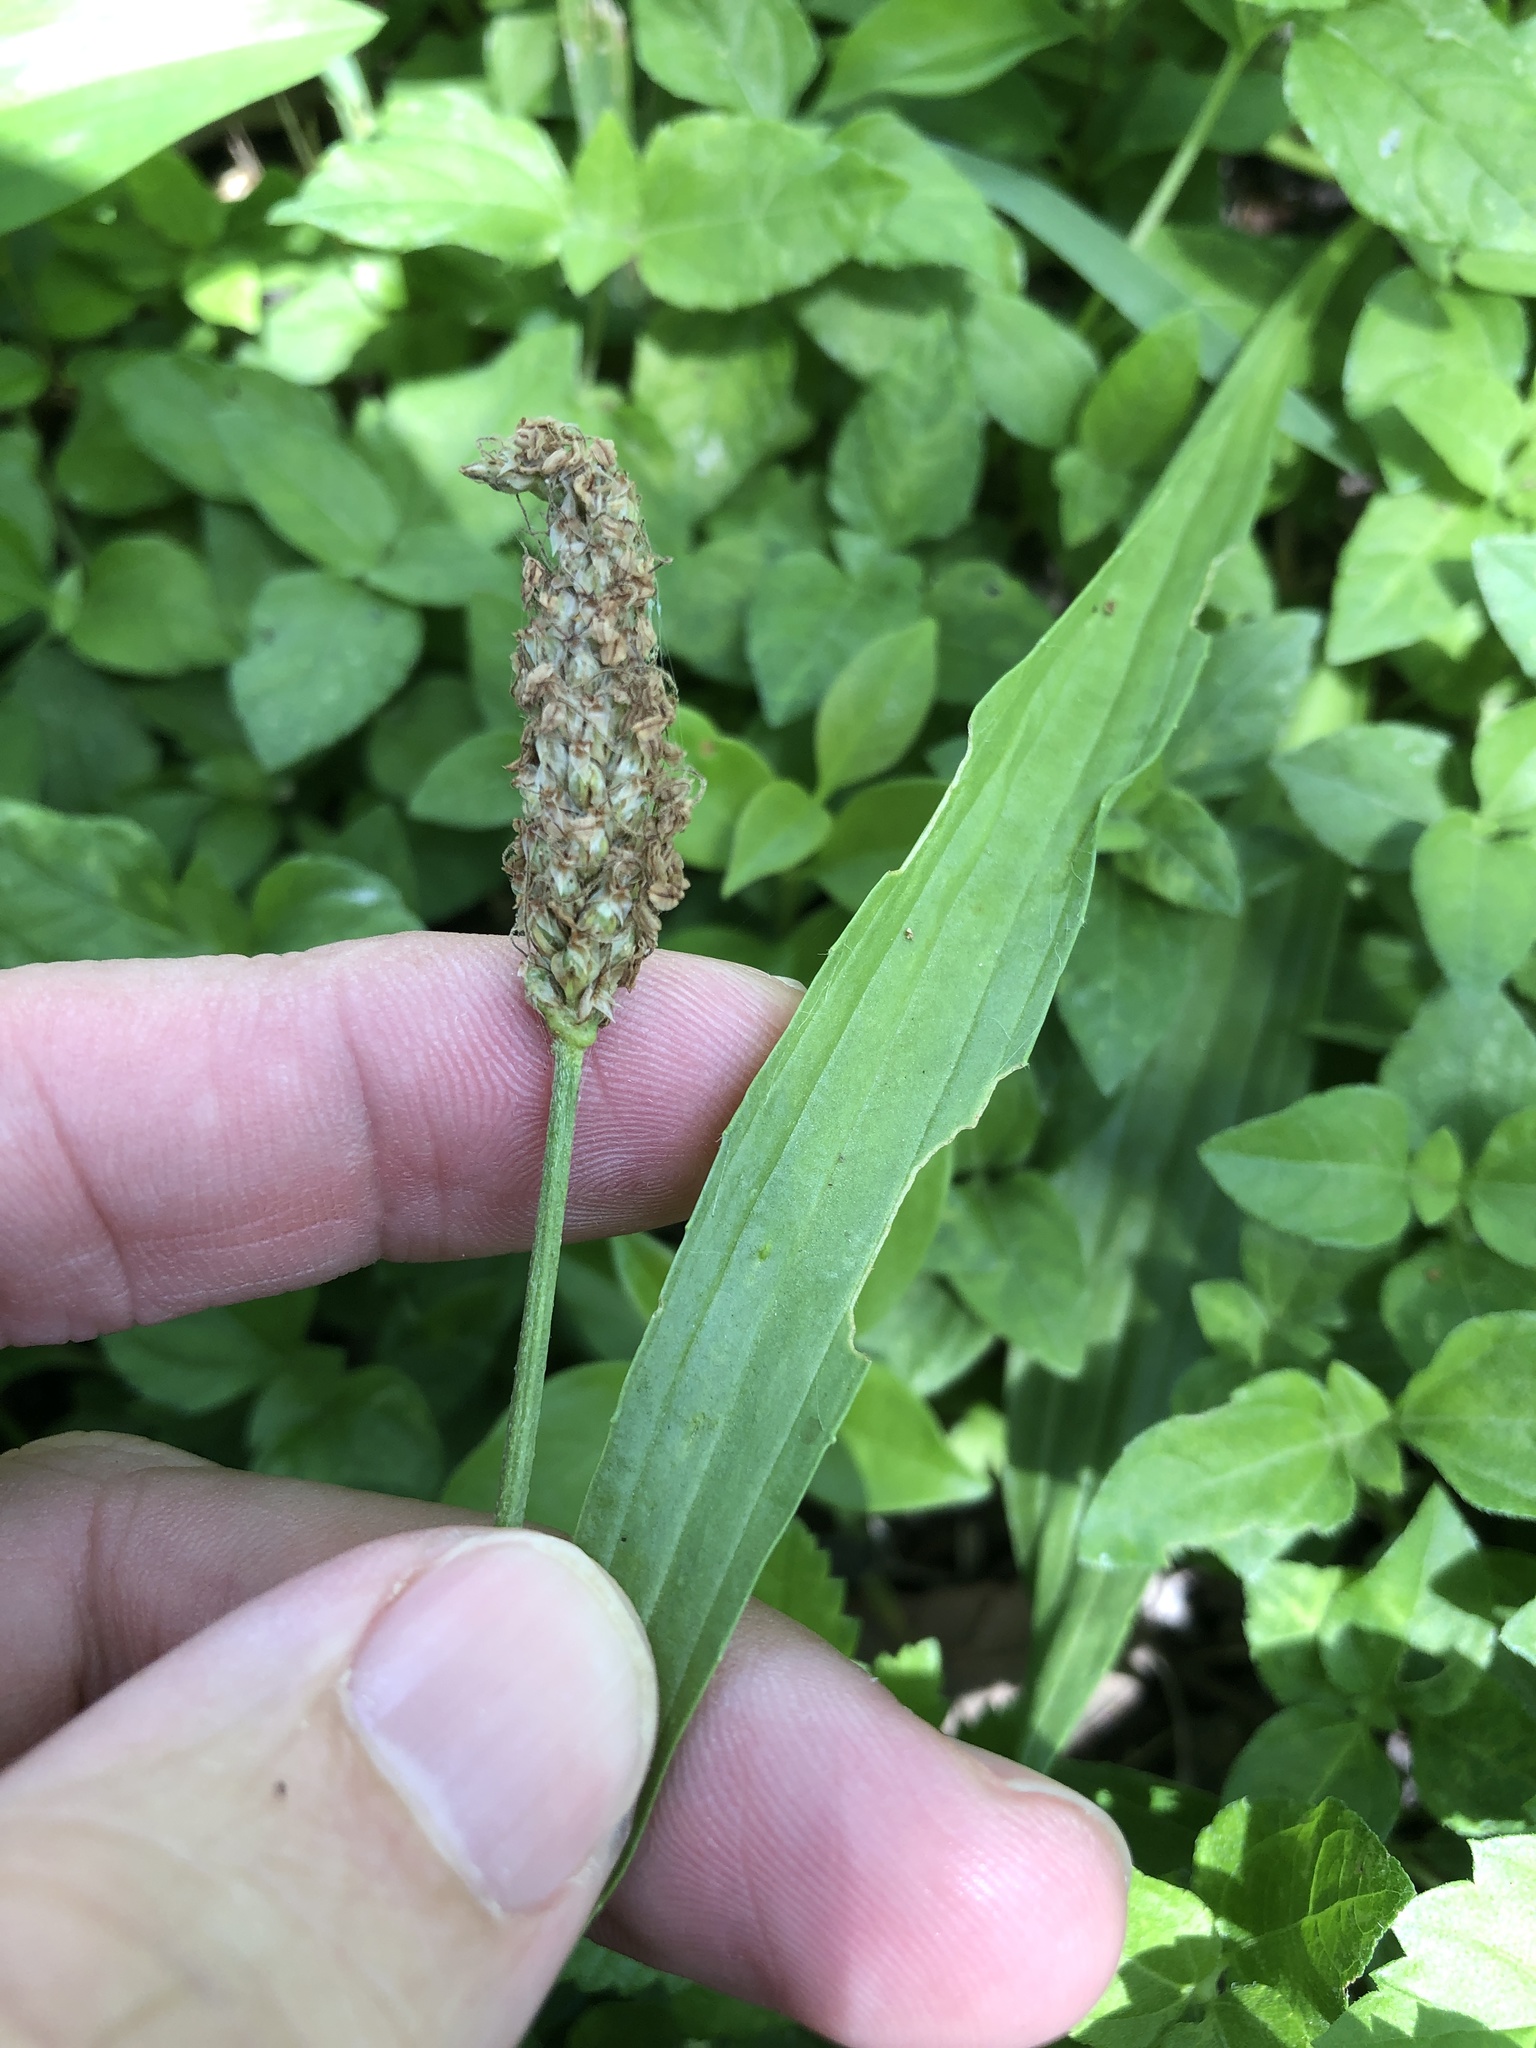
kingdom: Plantae
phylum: Tracheophyta
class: Magnoliopsida
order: Lamiales
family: Plantaginaceae
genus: Plantago
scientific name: Plantago lanceolata
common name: Ribwort plantain
